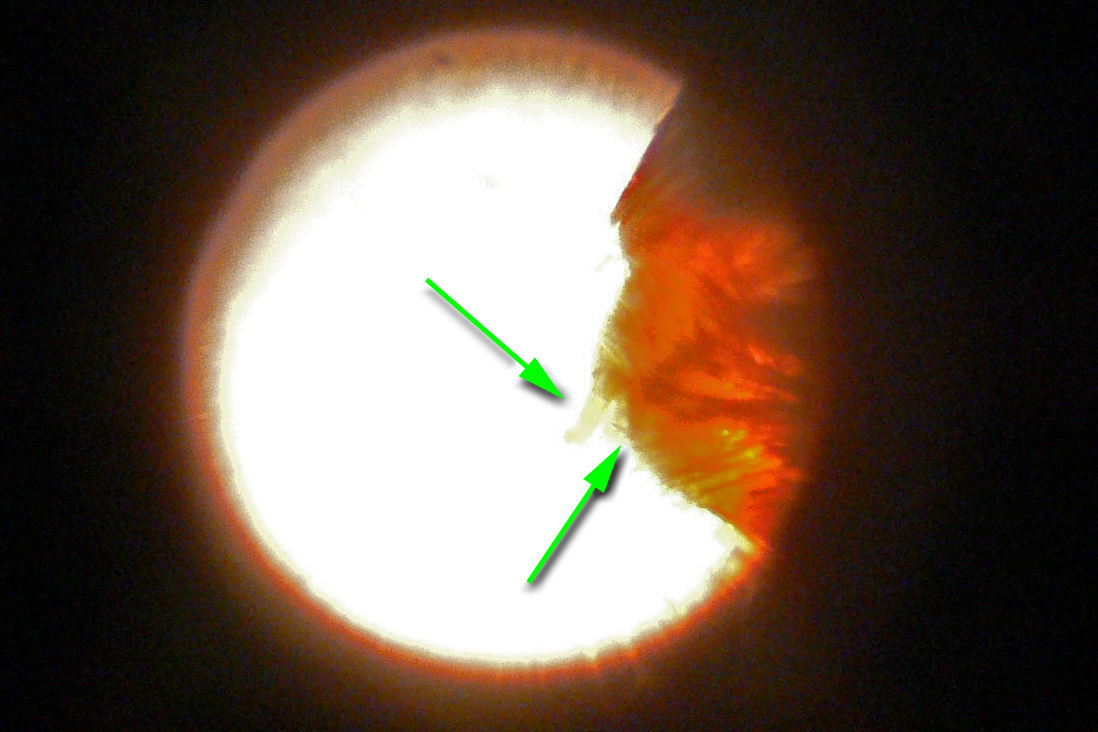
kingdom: Animalia
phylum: Arthropoda
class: Insecta
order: Lepidoptera
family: Hesperiidae
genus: Polites
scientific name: Polites themistocles
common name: Tawny-edged skipper
